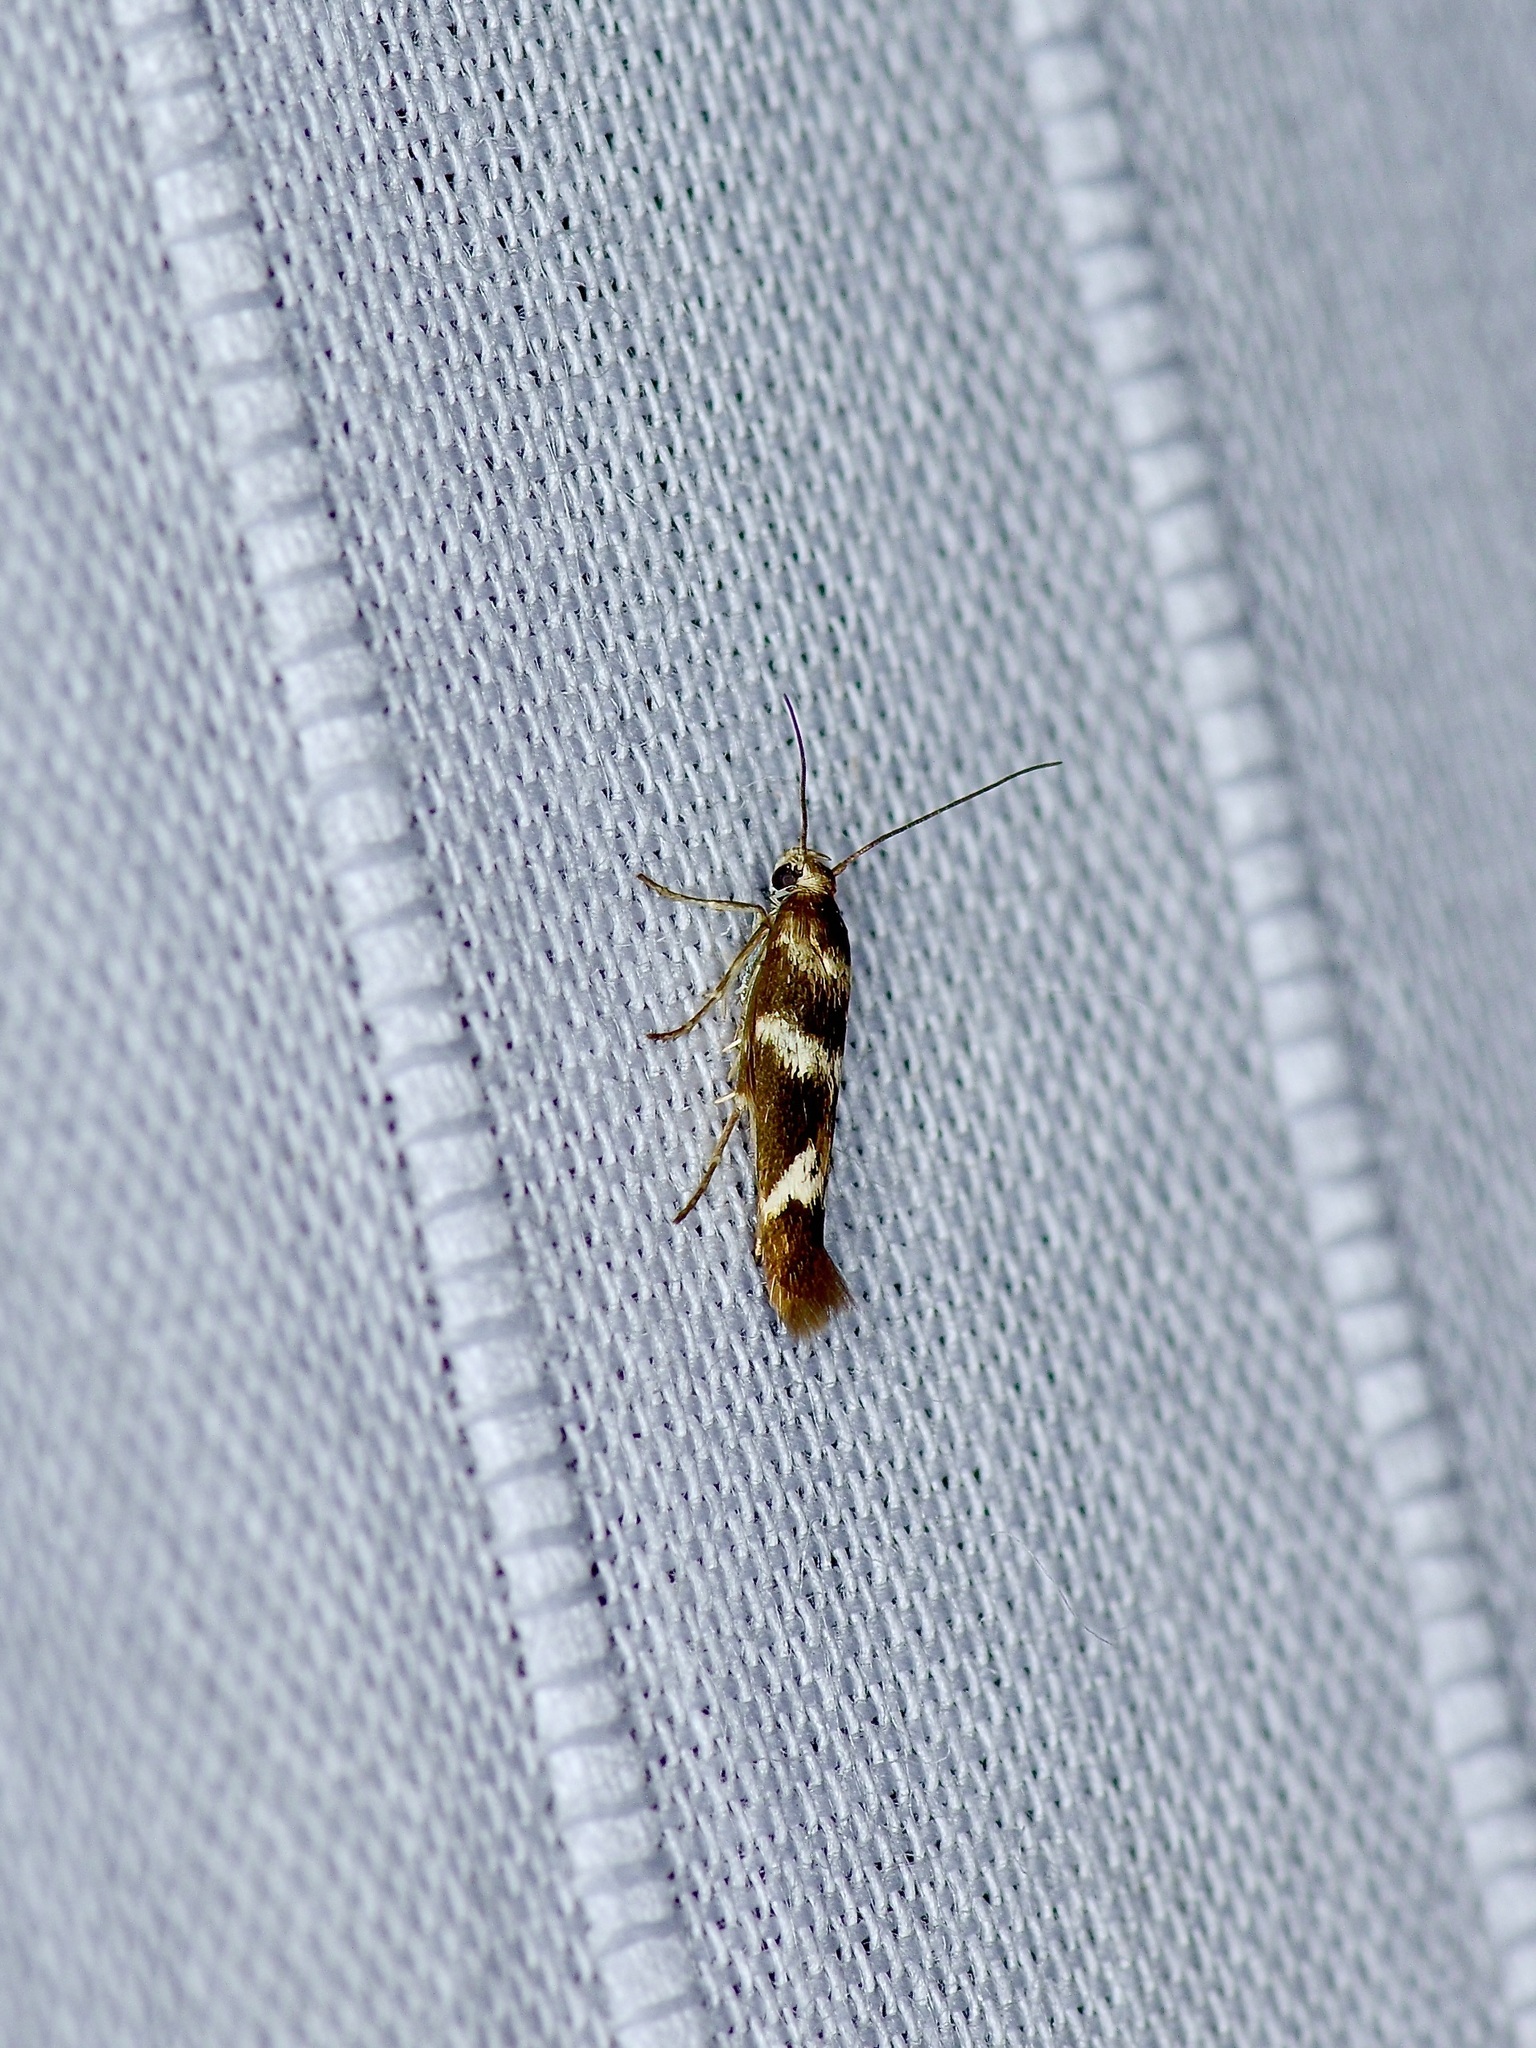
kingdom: Animalia
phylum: Arthropoda
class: Insecta
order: Lepidoptera
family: Scythrididae
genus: Scythris
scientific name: Scythris trivinctella
